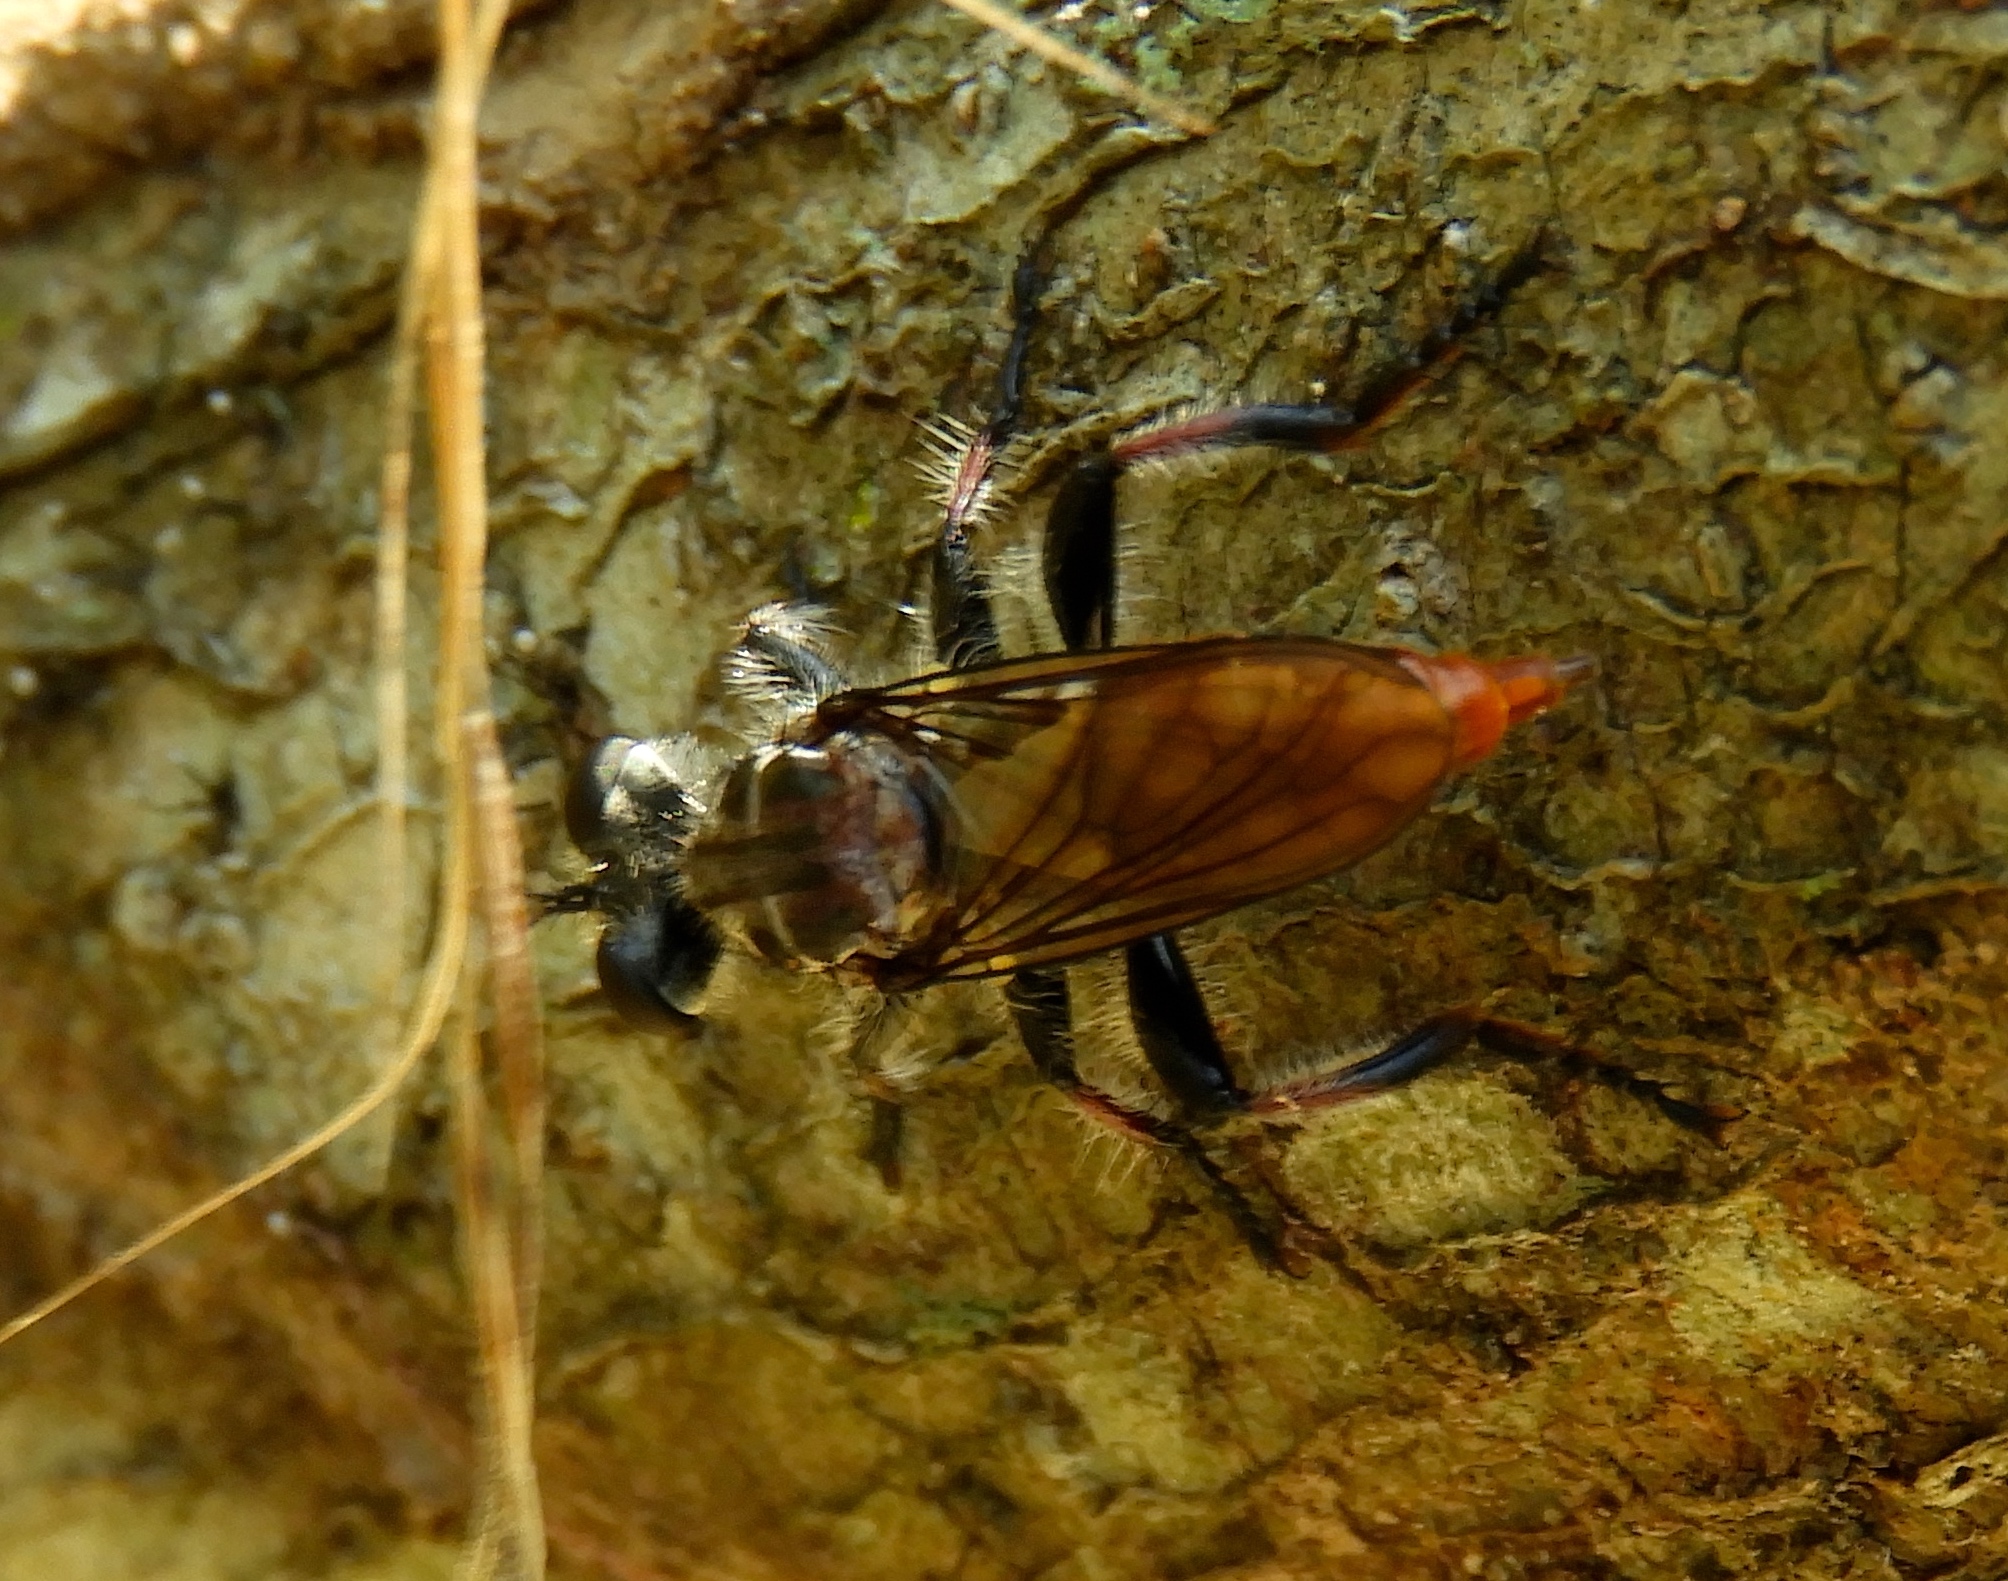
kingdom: Animalia
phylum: Arthropoda
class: Insecta
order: Diptera
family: Asilidae
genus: Andrenosoma
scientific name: Andrenosoma
